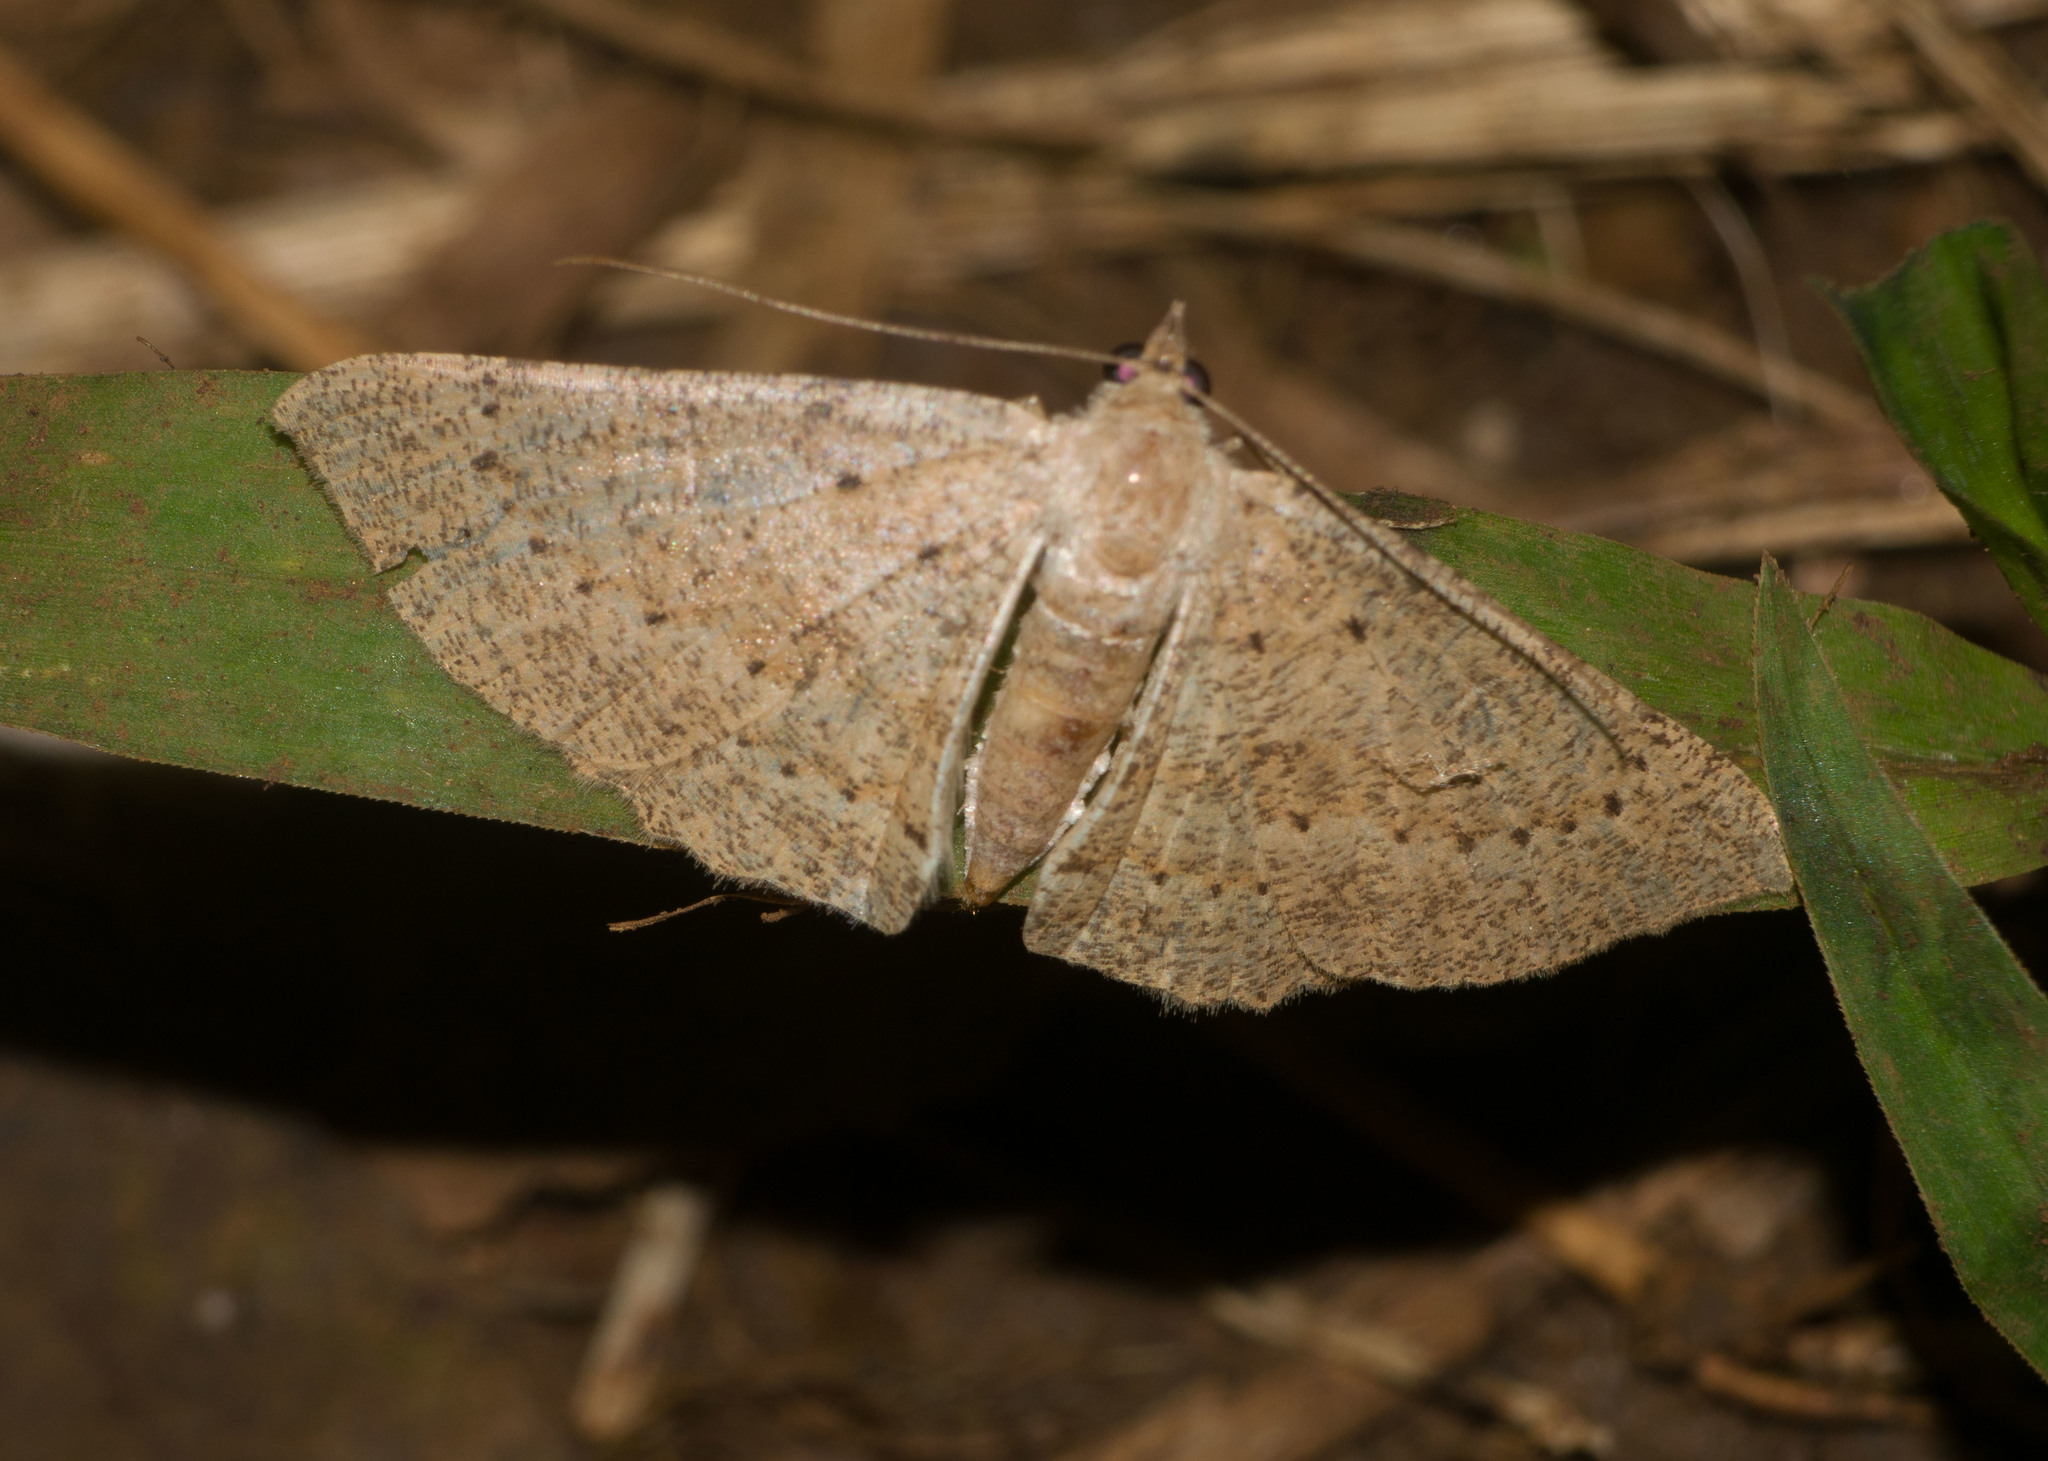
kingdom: Animalia
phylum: Arthropoda
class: Insecta
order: Lepidoptera
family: Geometridae
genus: Scotorythra
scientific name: Scotorythra corticea
